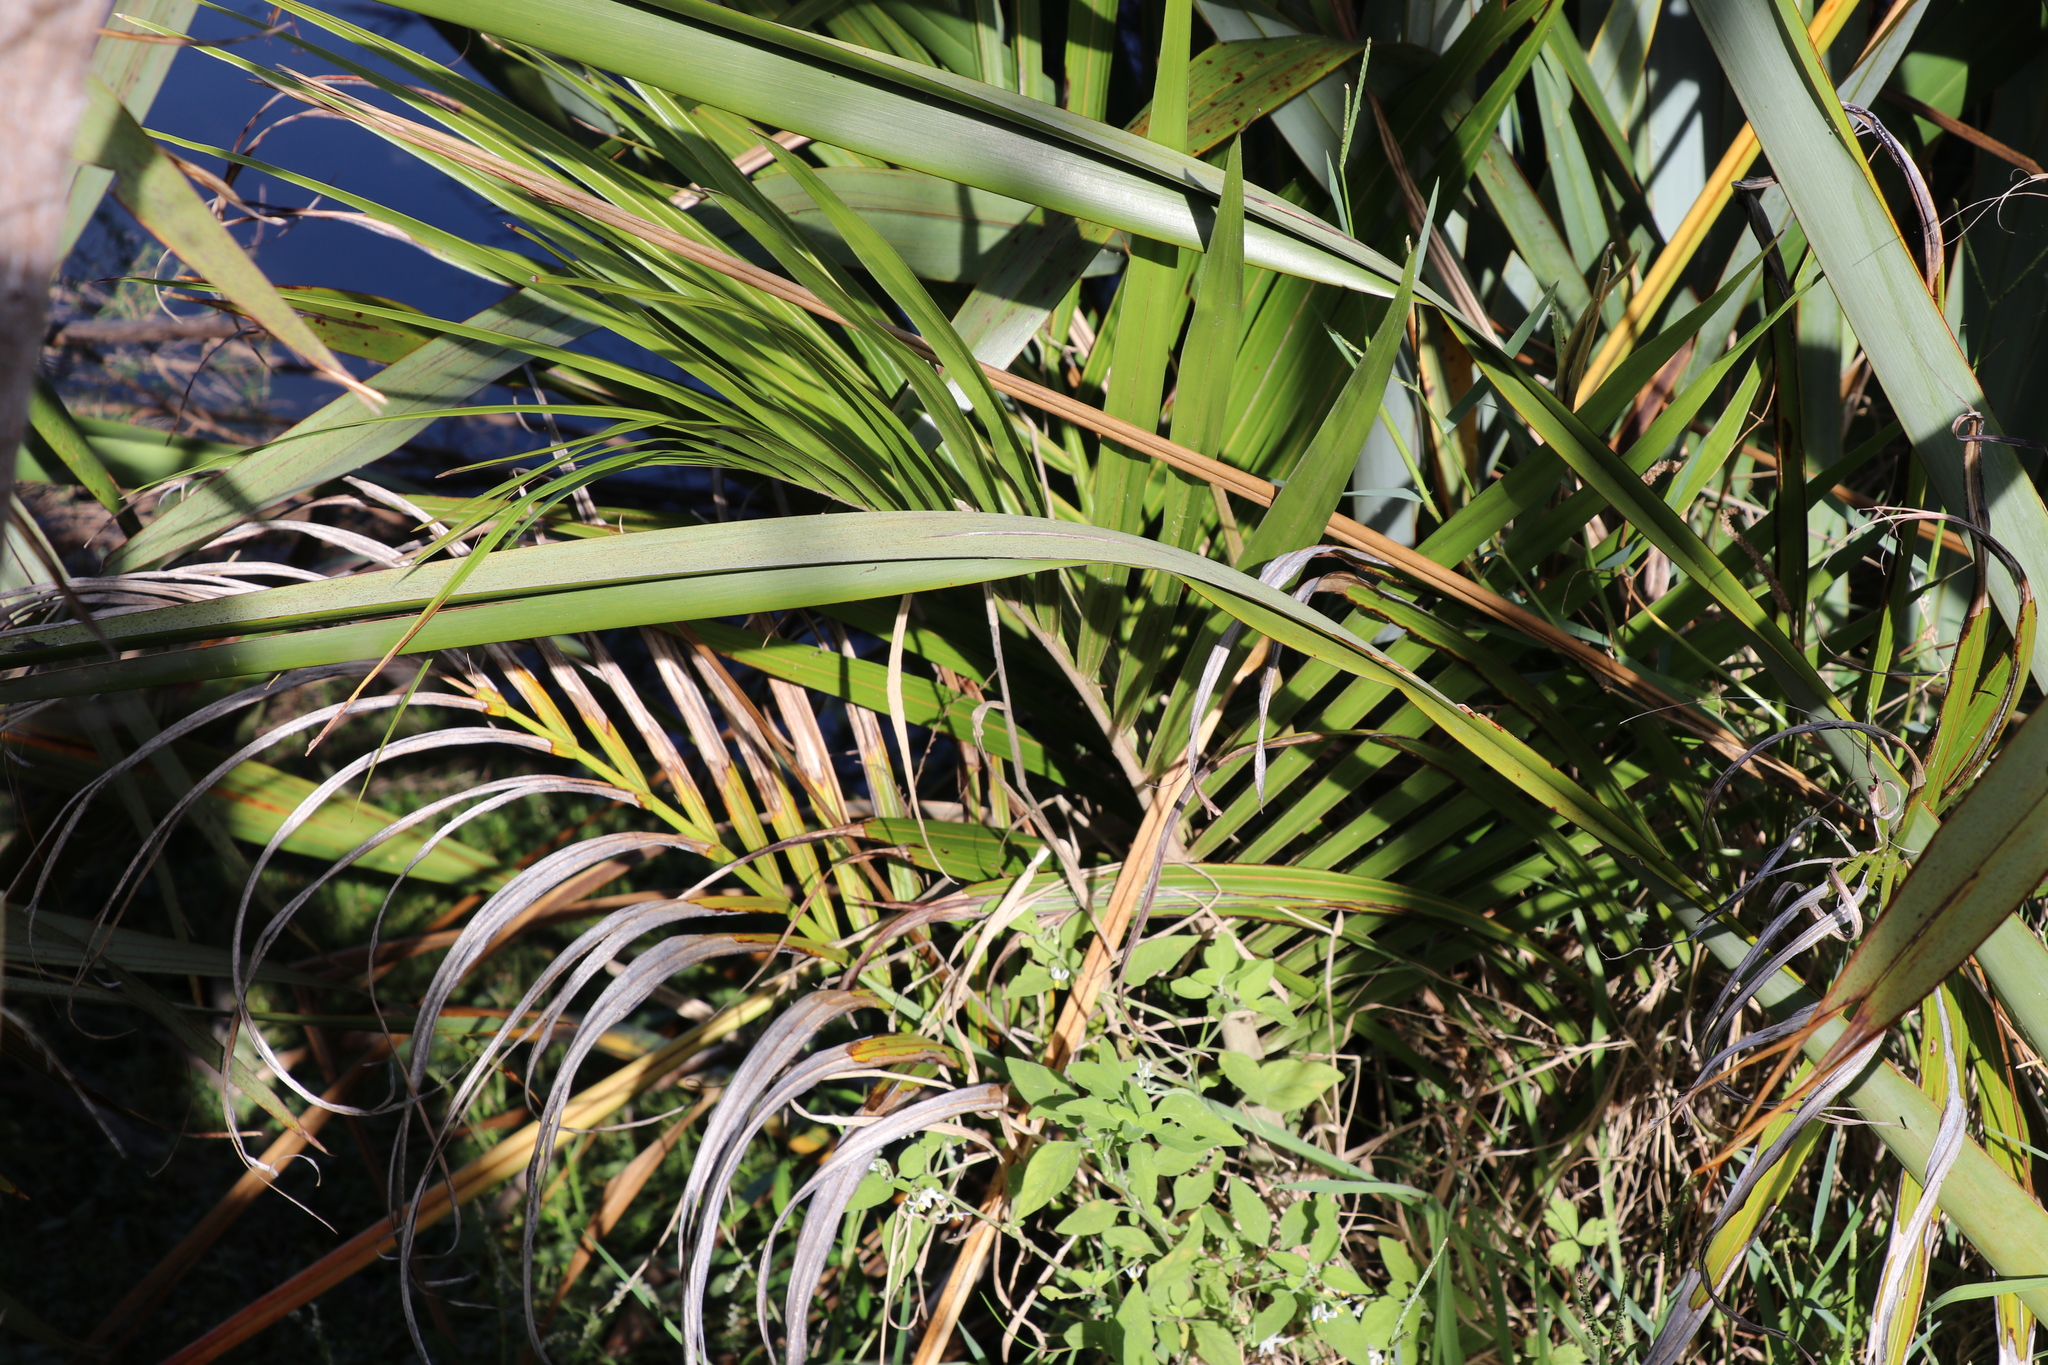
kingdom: Plantae
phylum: Tracheophyta
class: Liliopsida
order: Arecales
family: Arecaceae
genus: Rhopalostylis
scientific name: Rhopalostylis sapida
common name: Feather-duster palm
